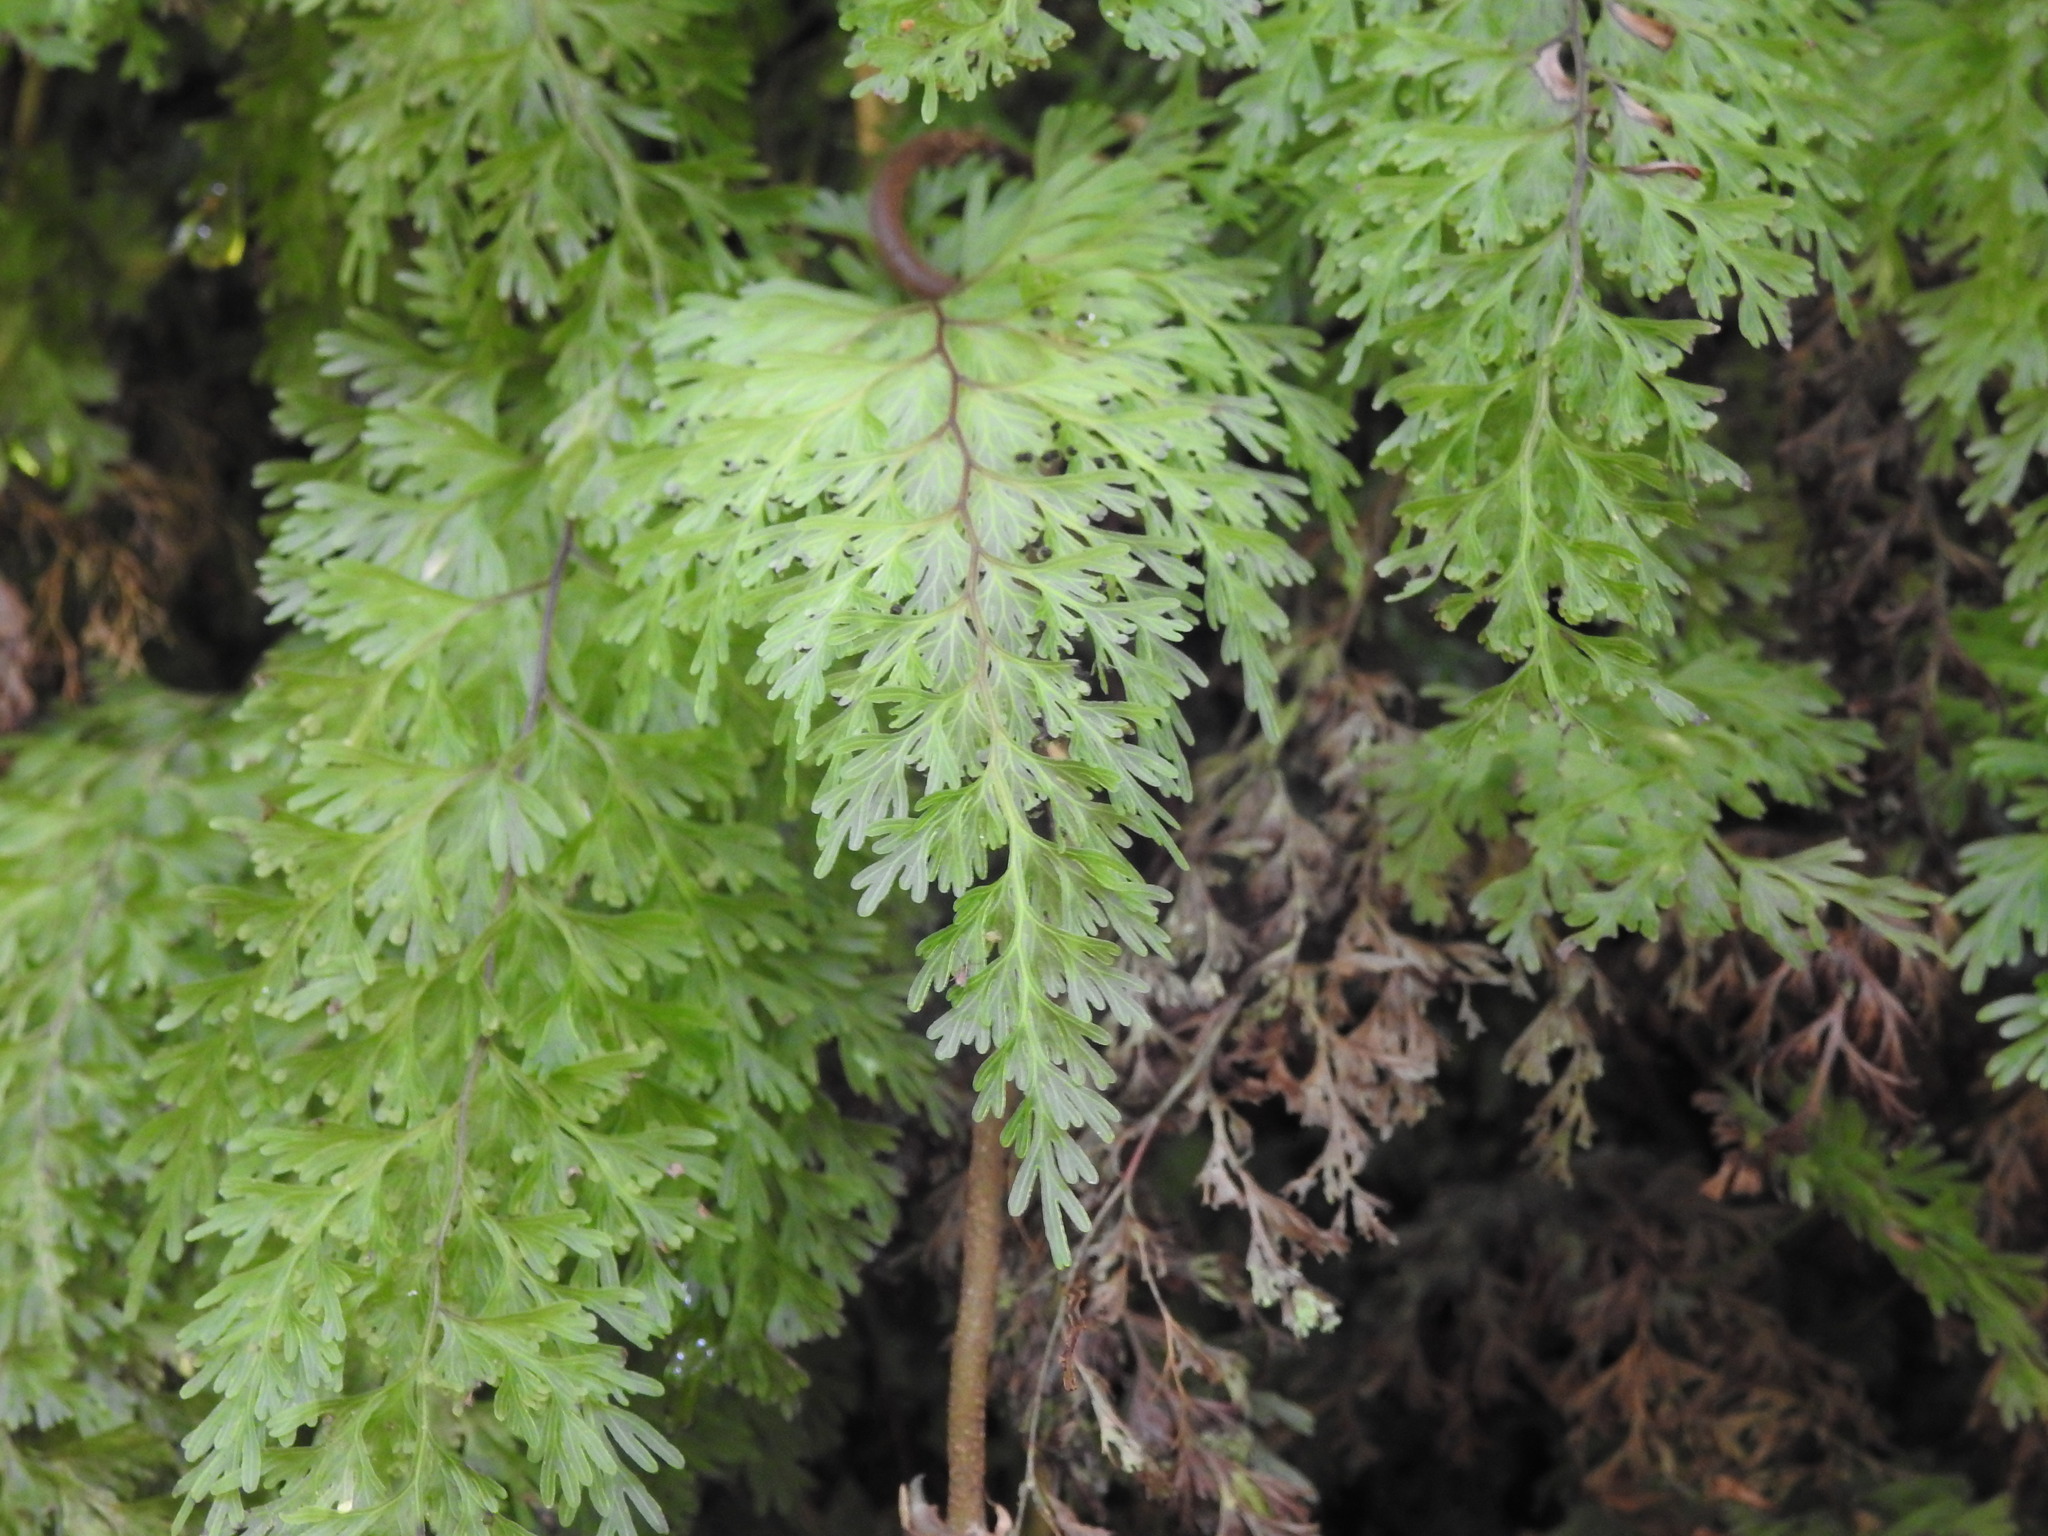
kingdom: Plantae
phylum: Tracheophyta
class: Polypodiopsida
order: Hymenophyllales
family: Hymenophyllaceae
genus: Hymenophyllum
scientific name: Hymenophyllum demissum
